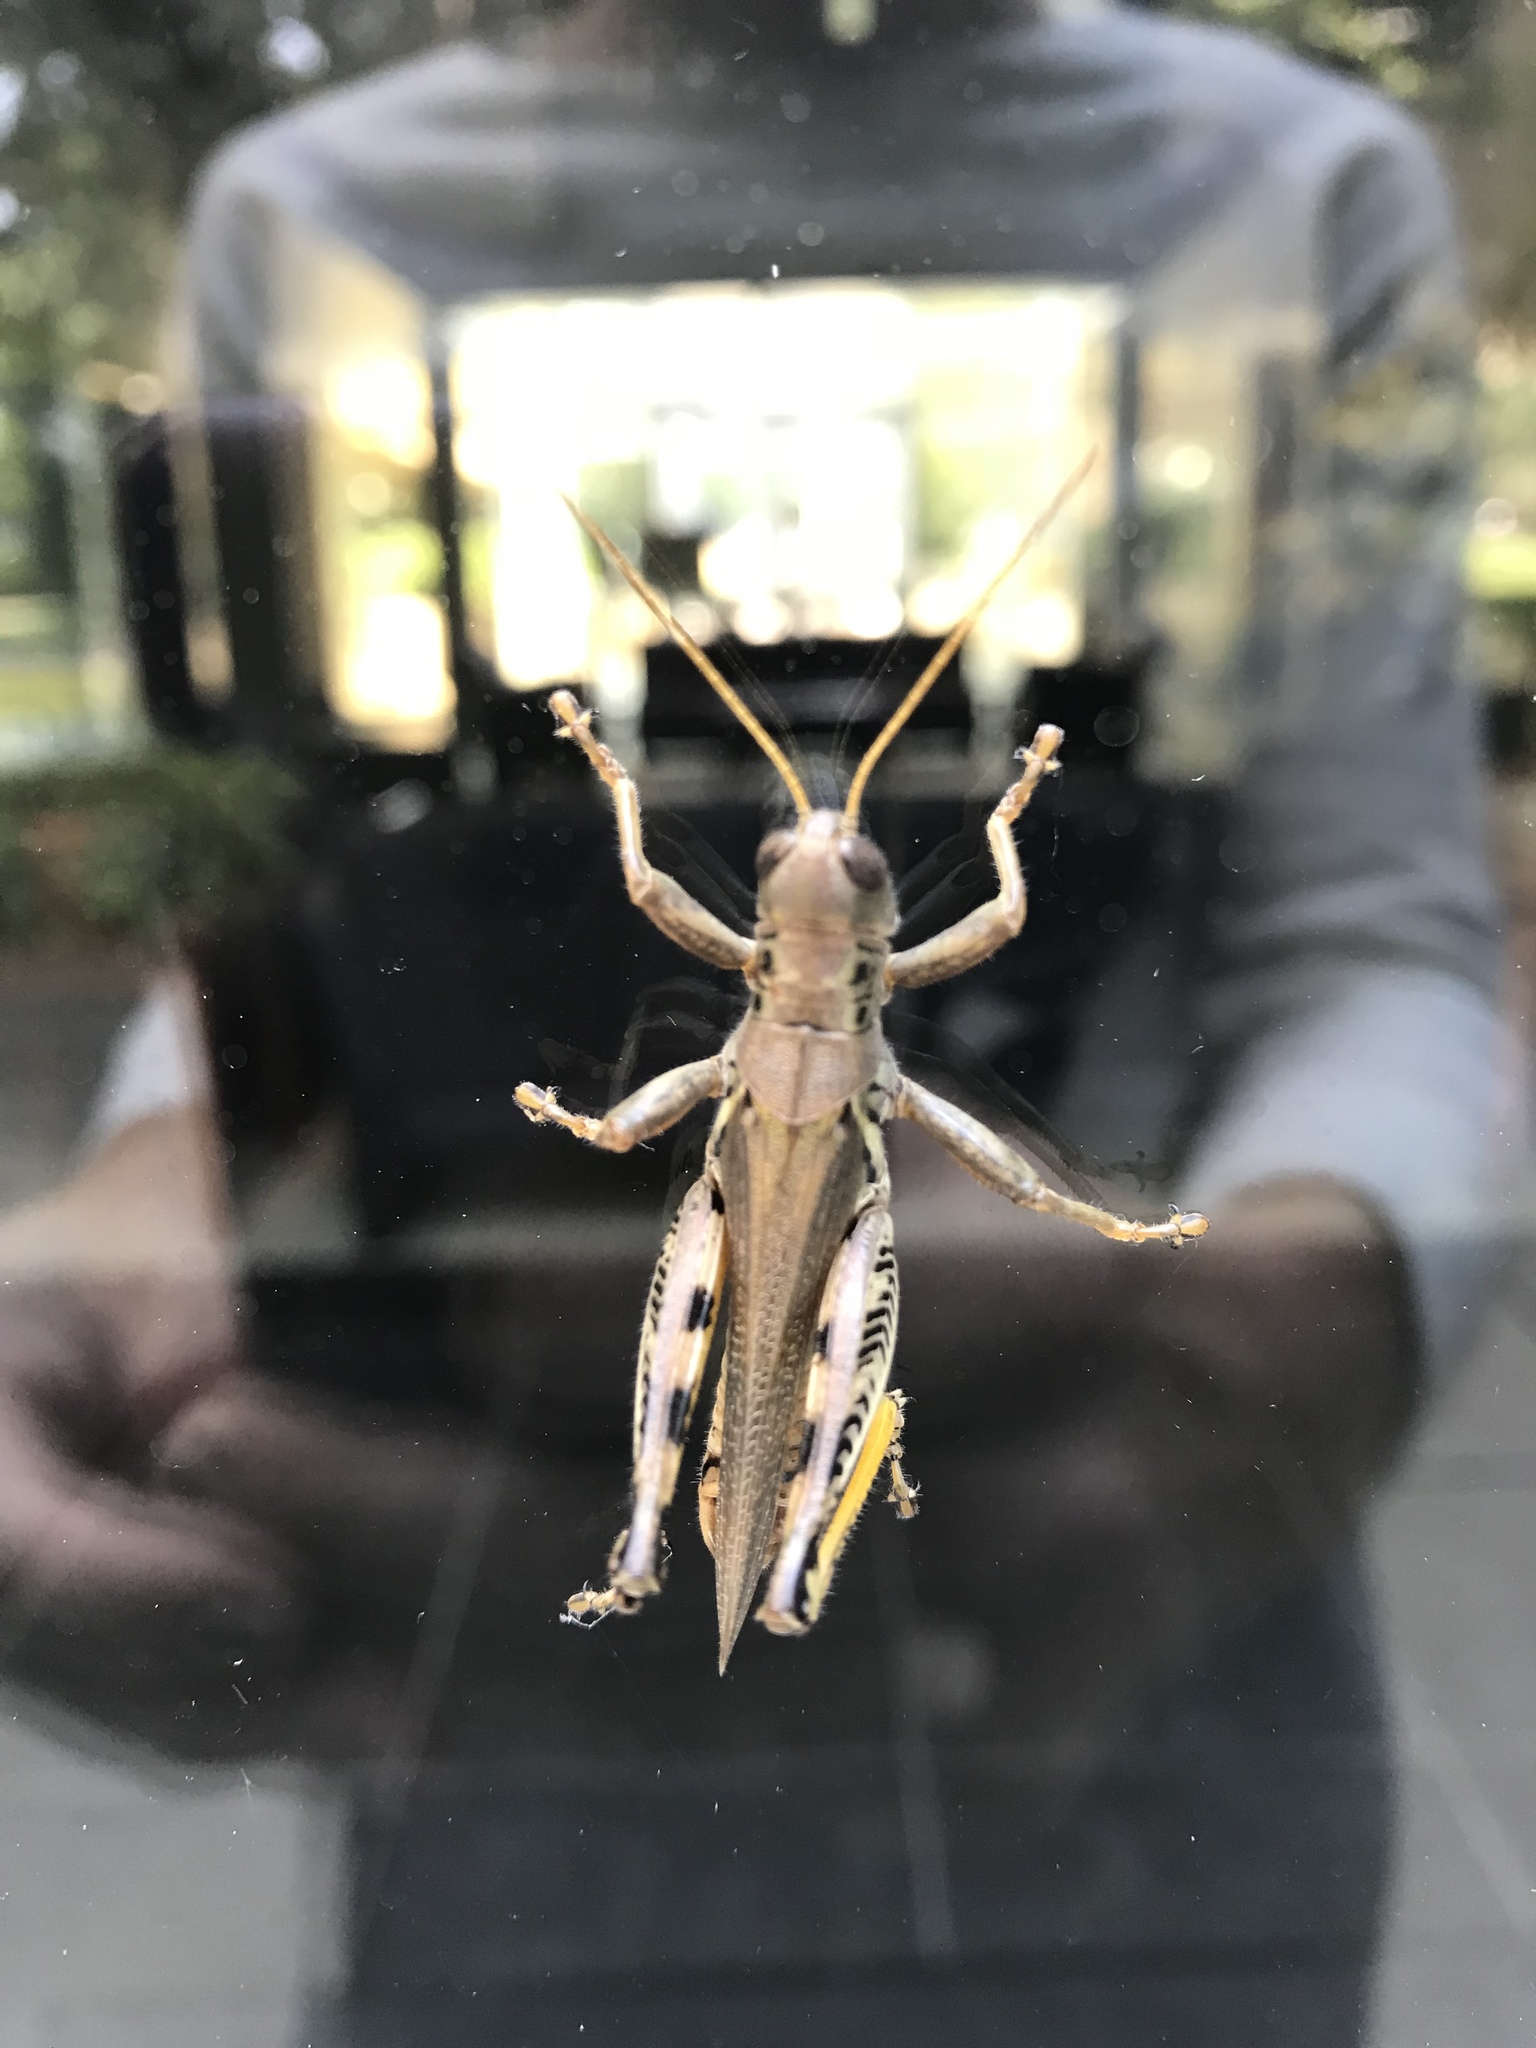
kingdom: Animalia
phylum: Arthropoda
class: Insecta
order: Orthoptera
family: Acrididae
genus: Melanoplus
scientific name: Melanoplus differentialis
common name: Differential grasshopper
